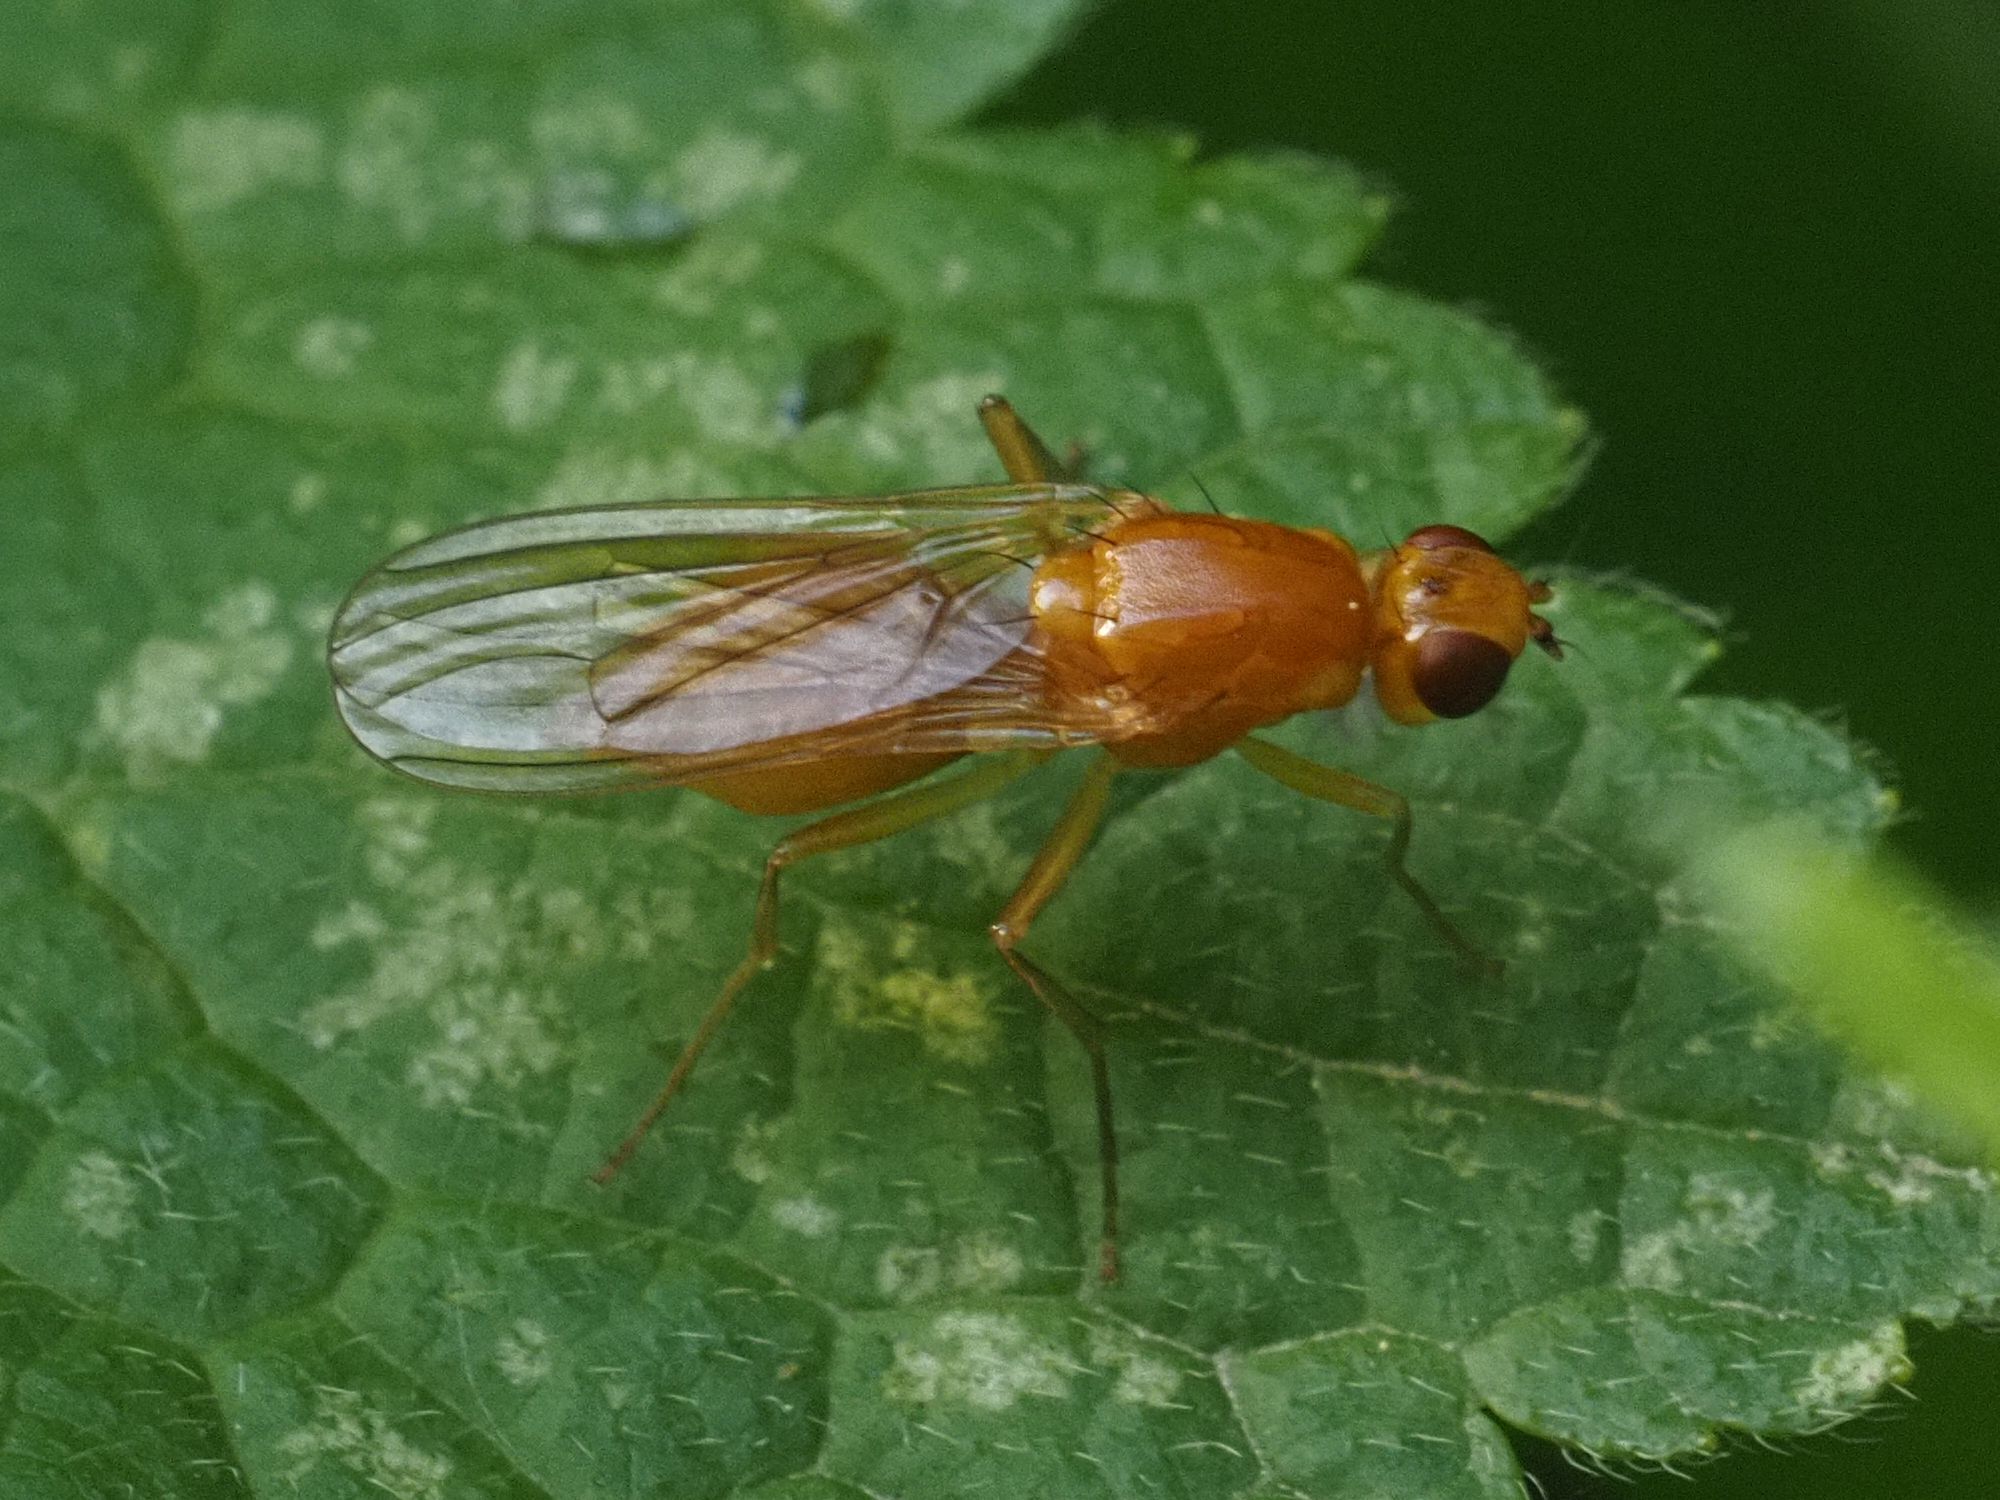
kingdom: Animalia
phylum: Arthropoda
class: Insecta
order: Diptera
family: Psilidae
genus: Psila
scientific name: Psila fimetaria
